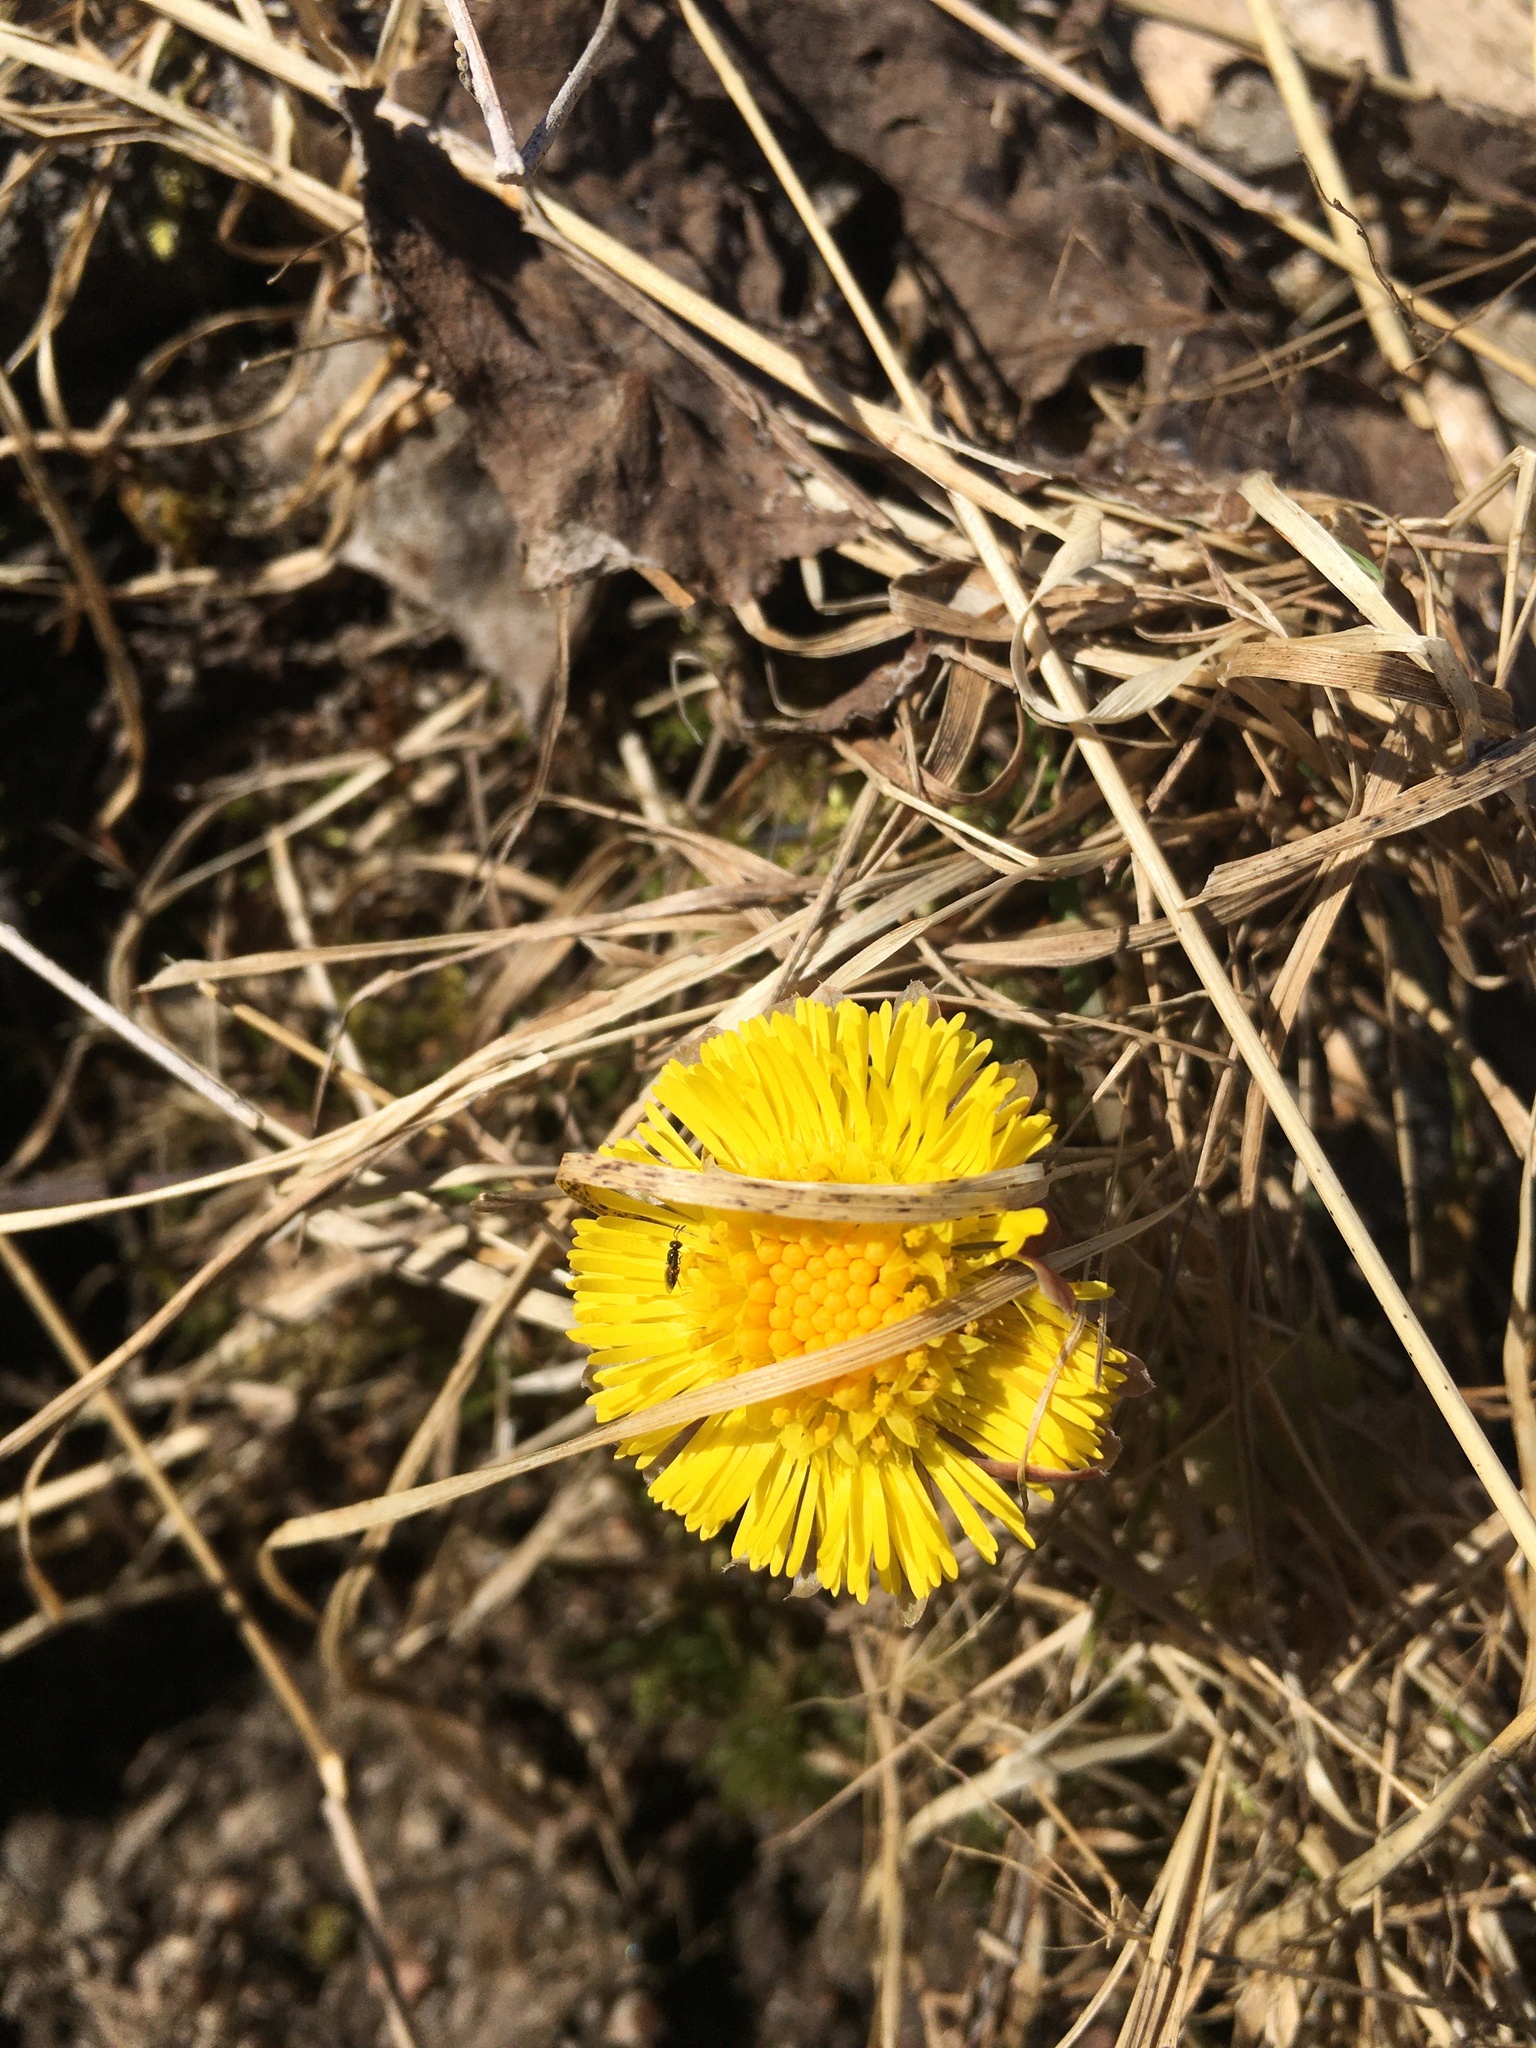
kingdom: Plantae
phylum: Tracheophyta
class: Magnoliopsida
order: Asterales
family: Asteraceae
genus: Tussilago
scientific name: Tussilago farfara
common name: Coltsfoot
